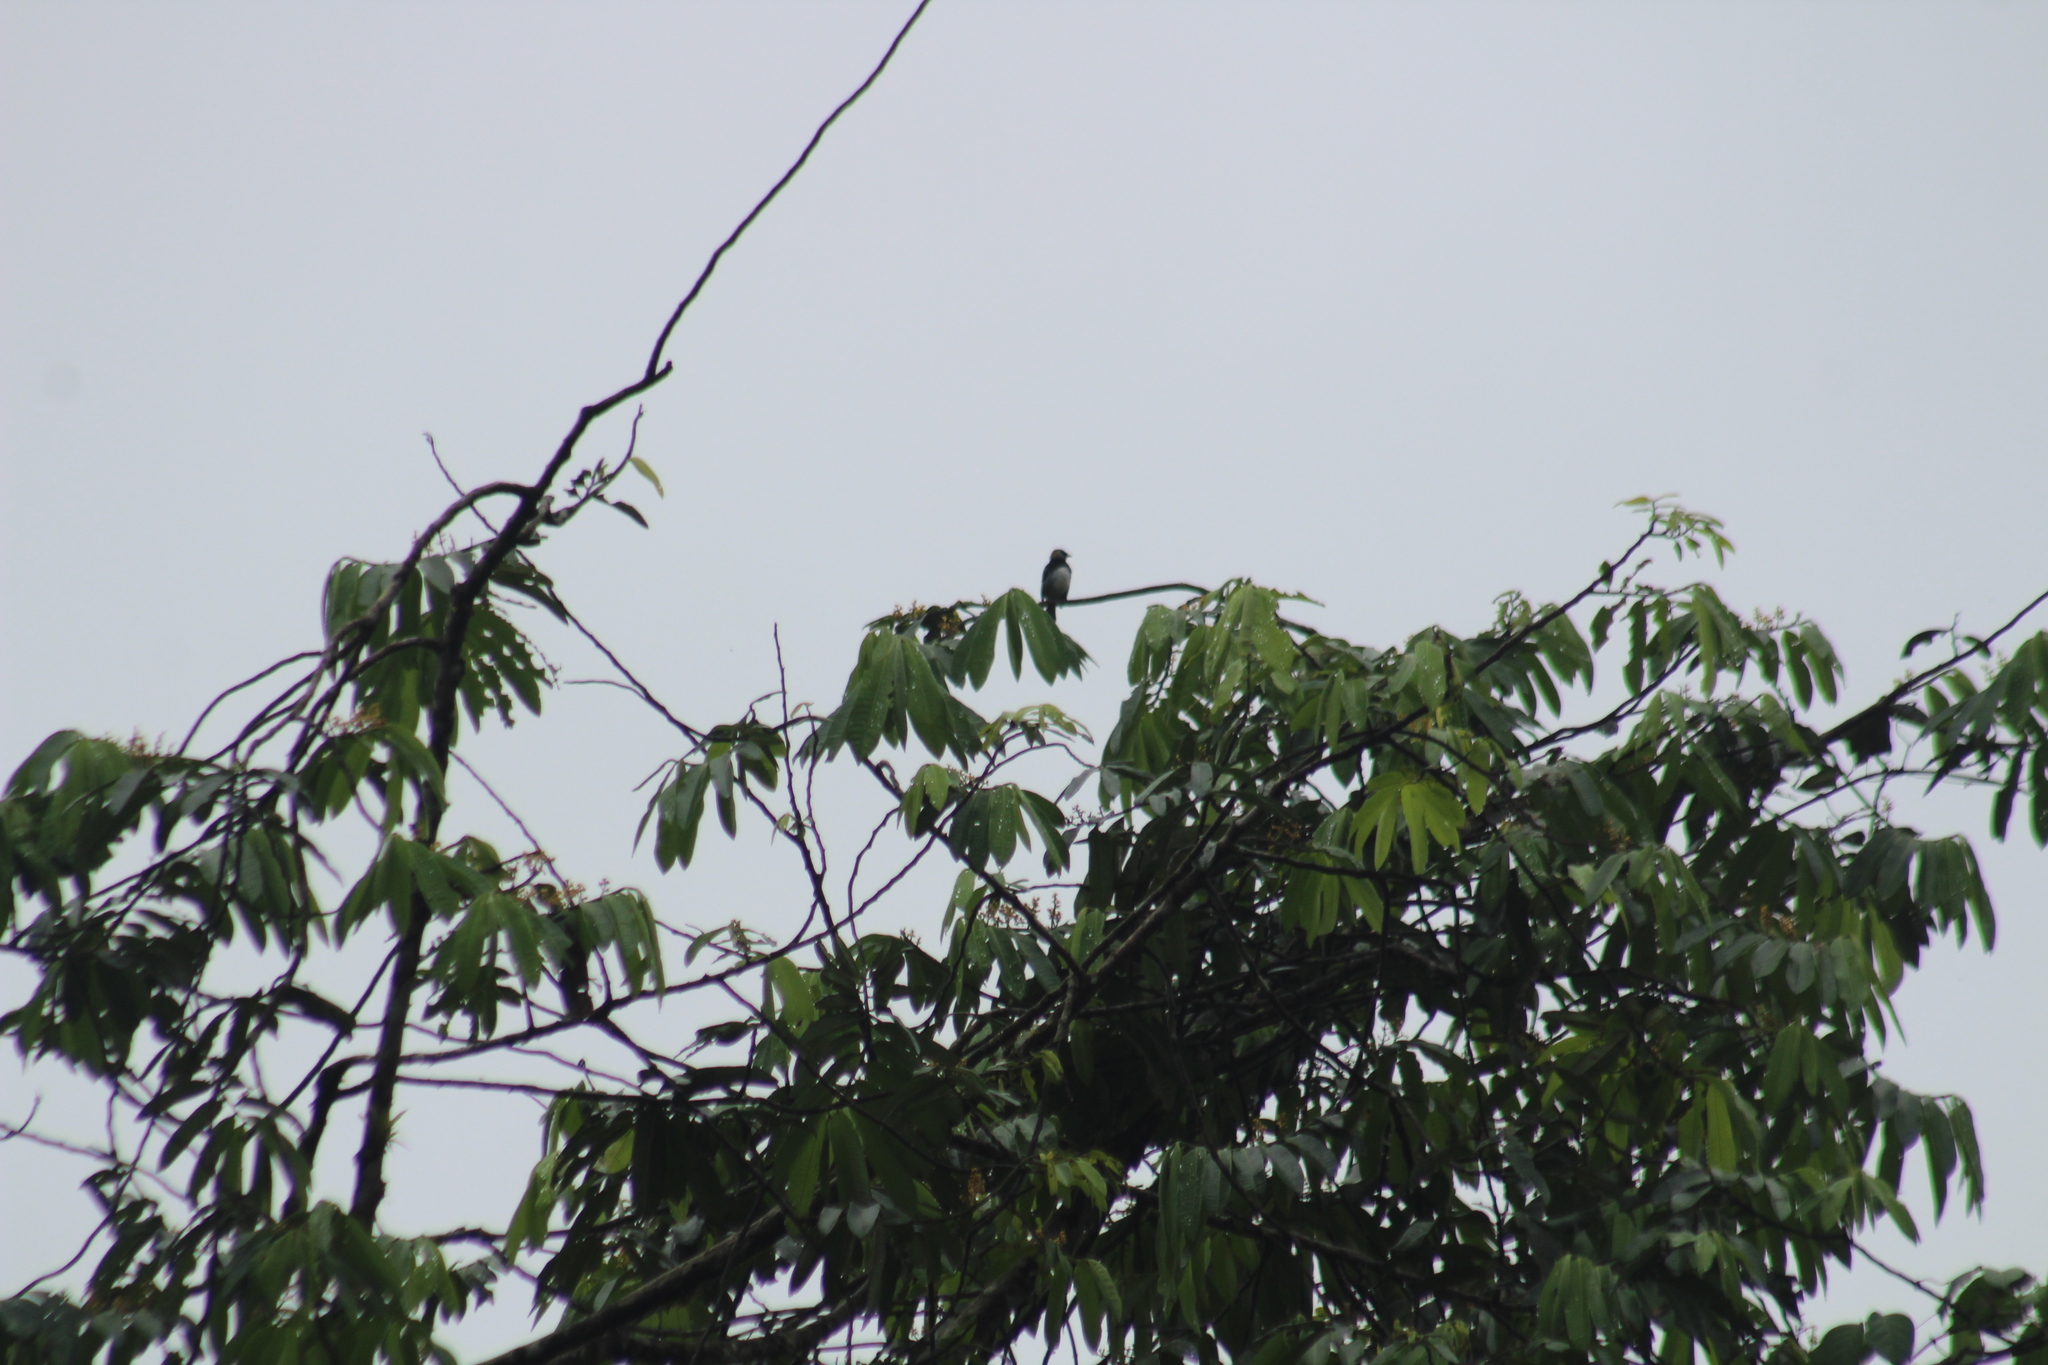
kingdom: Animalia
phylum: Chordata
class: Aves
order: Passeriformes
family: Thraupidae
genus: Stilpnia
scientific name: Stilpnia larvata
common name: Golden-hooded tanager
